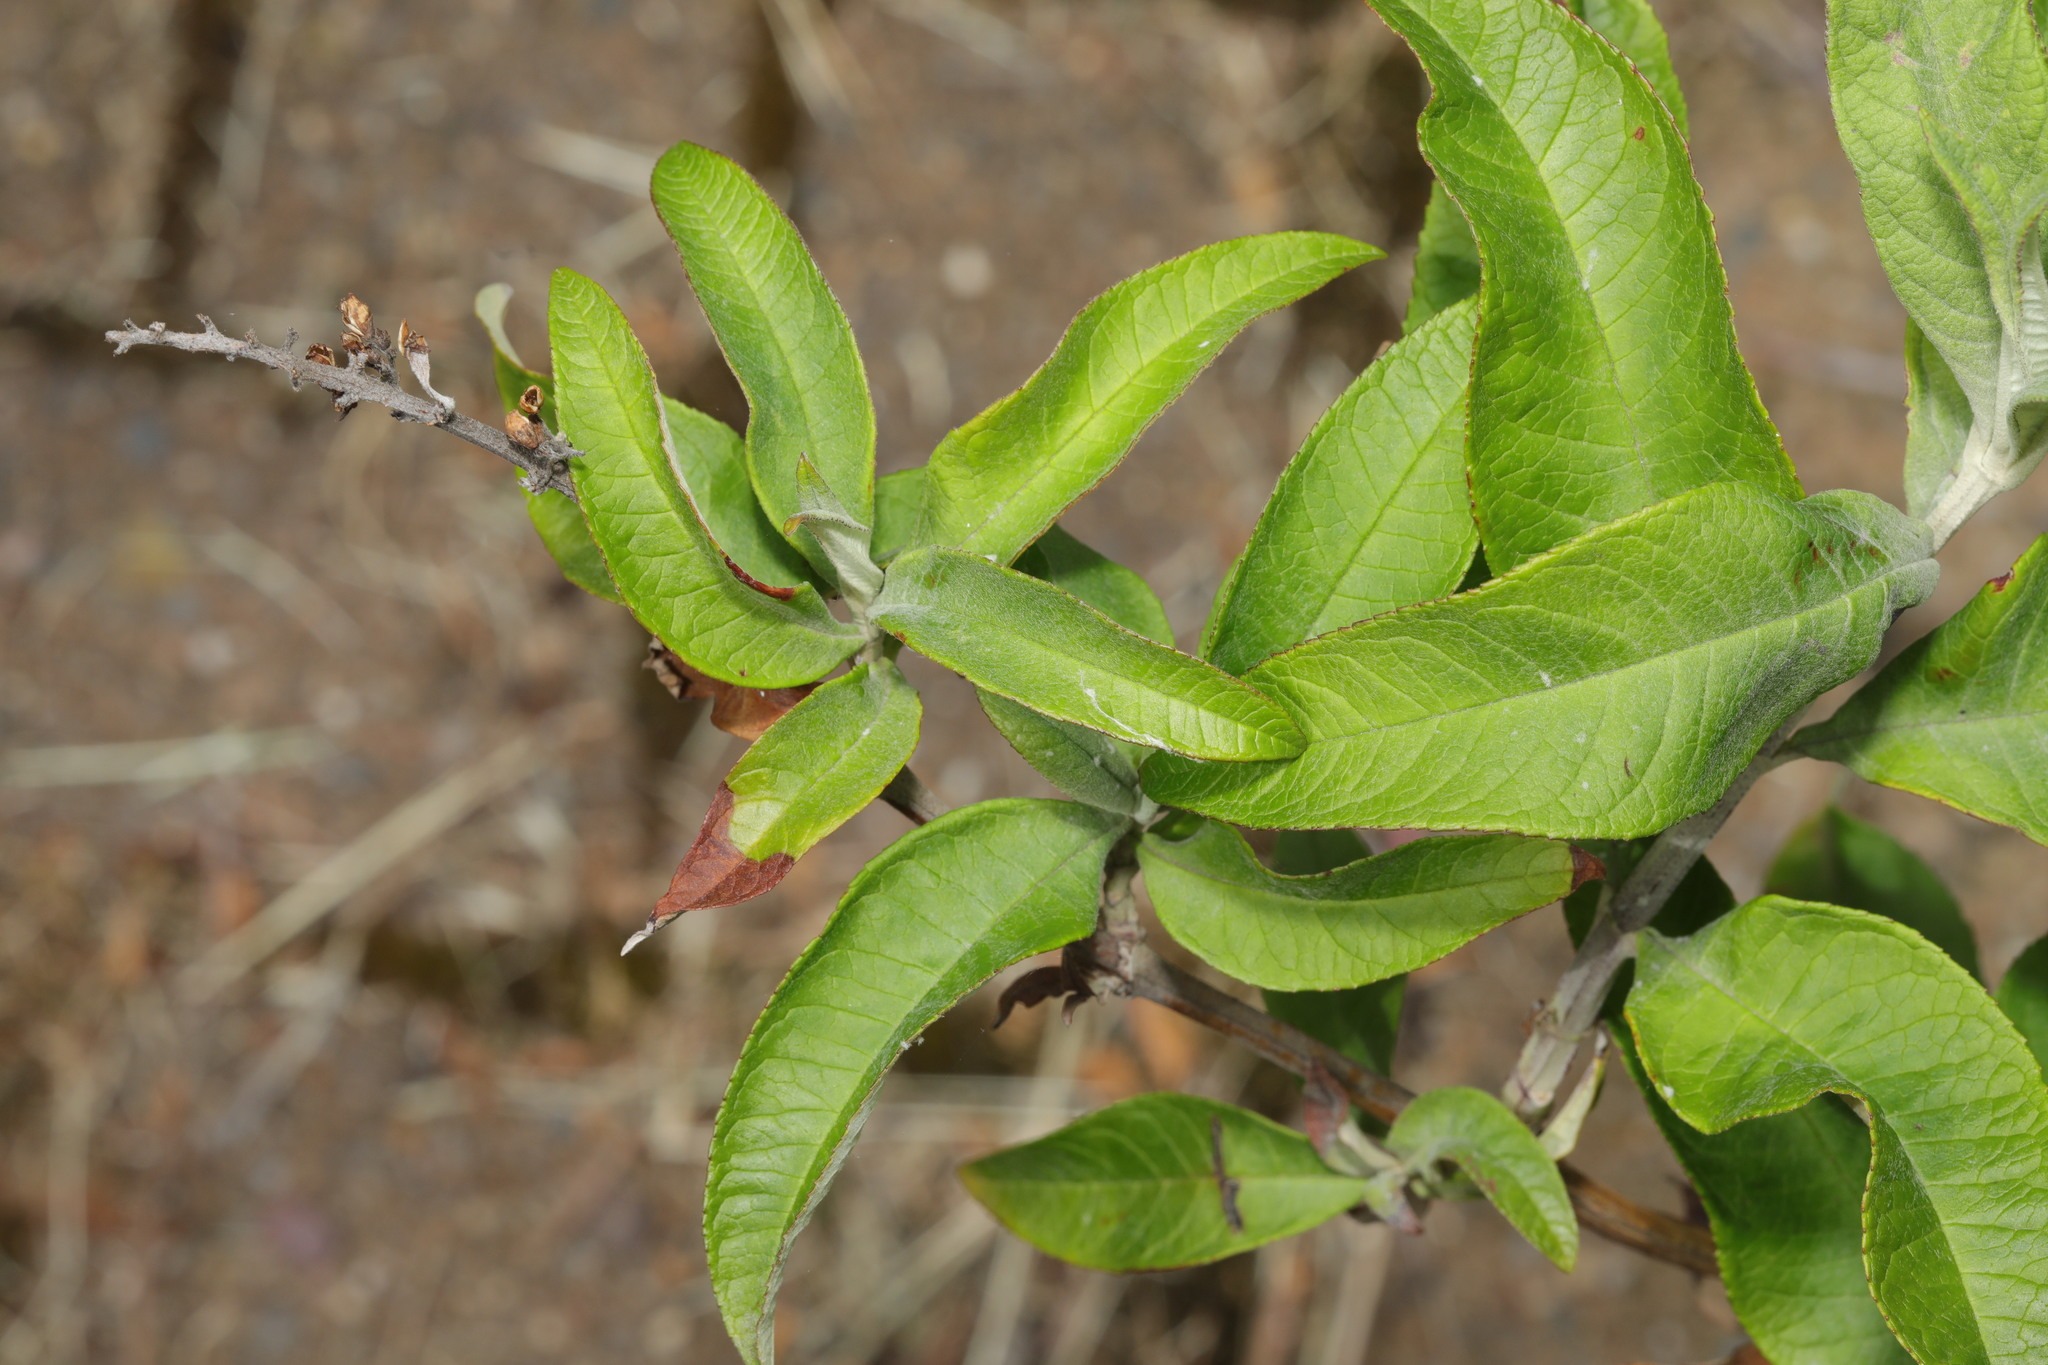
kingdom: Plantae
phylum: Tracheophyta
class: Magnoliopsida
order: Lamiales
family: Scrophulariaceae
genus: Buddleja
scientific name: Buddleja davidii
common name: Butterfly-bush
